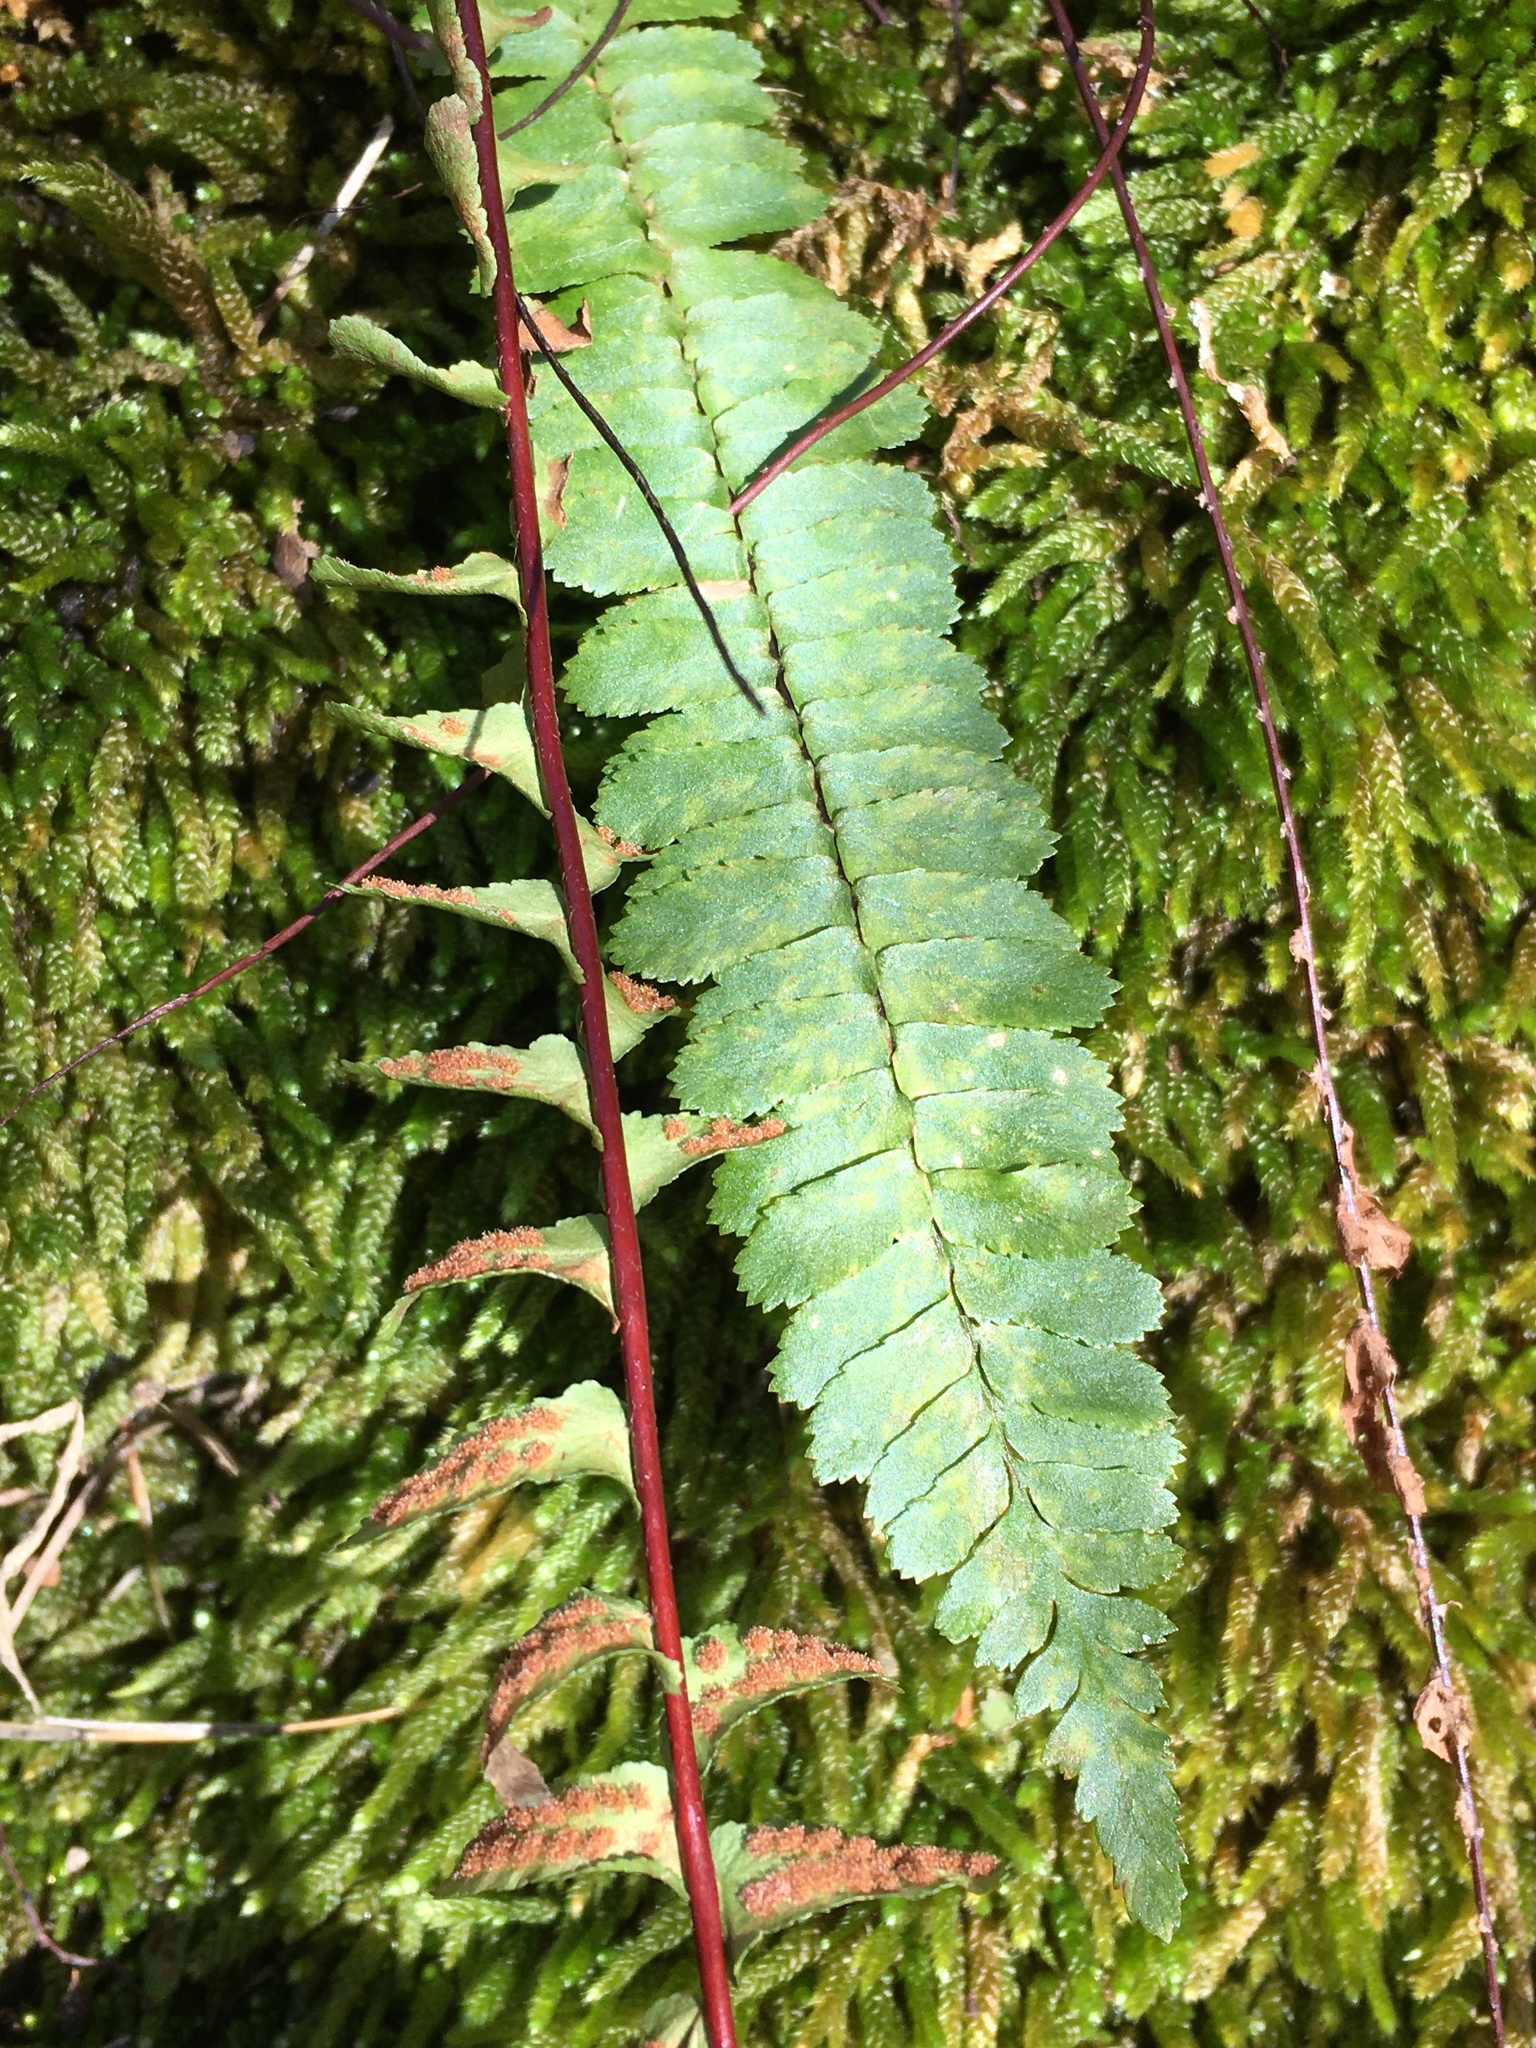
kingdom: Plantae
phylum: Tracheophyta
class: Polypodiopsida
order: Polypodiales
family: Aspleniaceae
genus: Asplenium
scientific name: Asplenium platyneuron
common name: Ebony spleenwort
